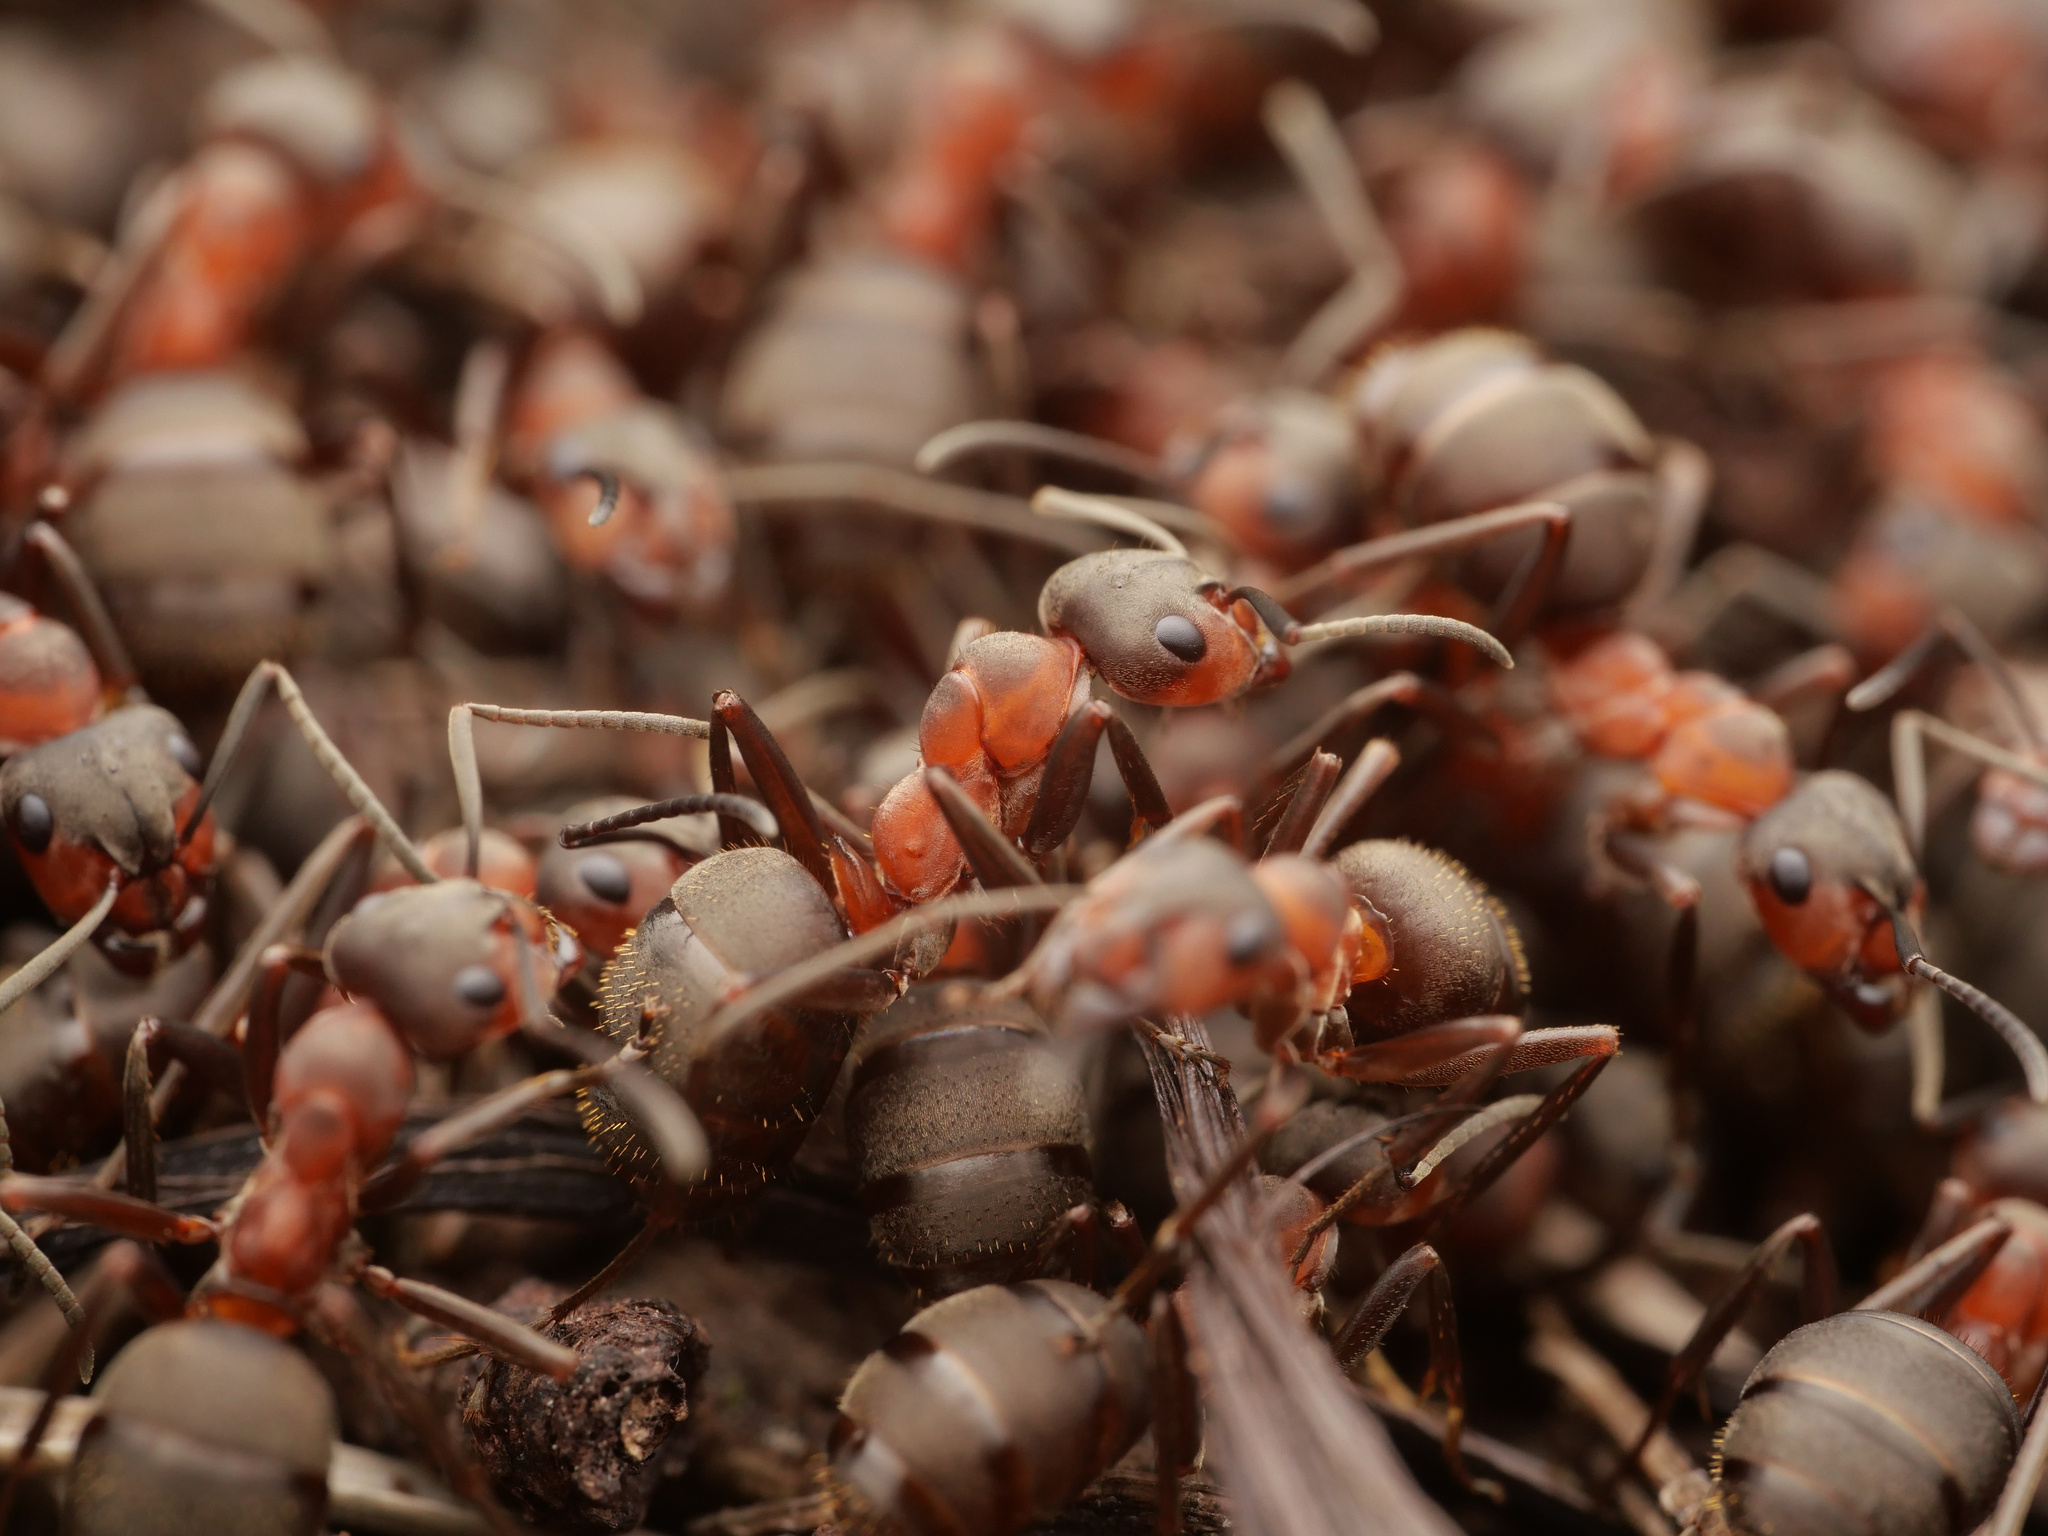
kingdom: Animalia
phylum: Arthropoda
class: Insecta
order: Hymenoptera
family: Formicidae
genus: Formica
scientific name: Formica pratensis
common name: European red wood ant
